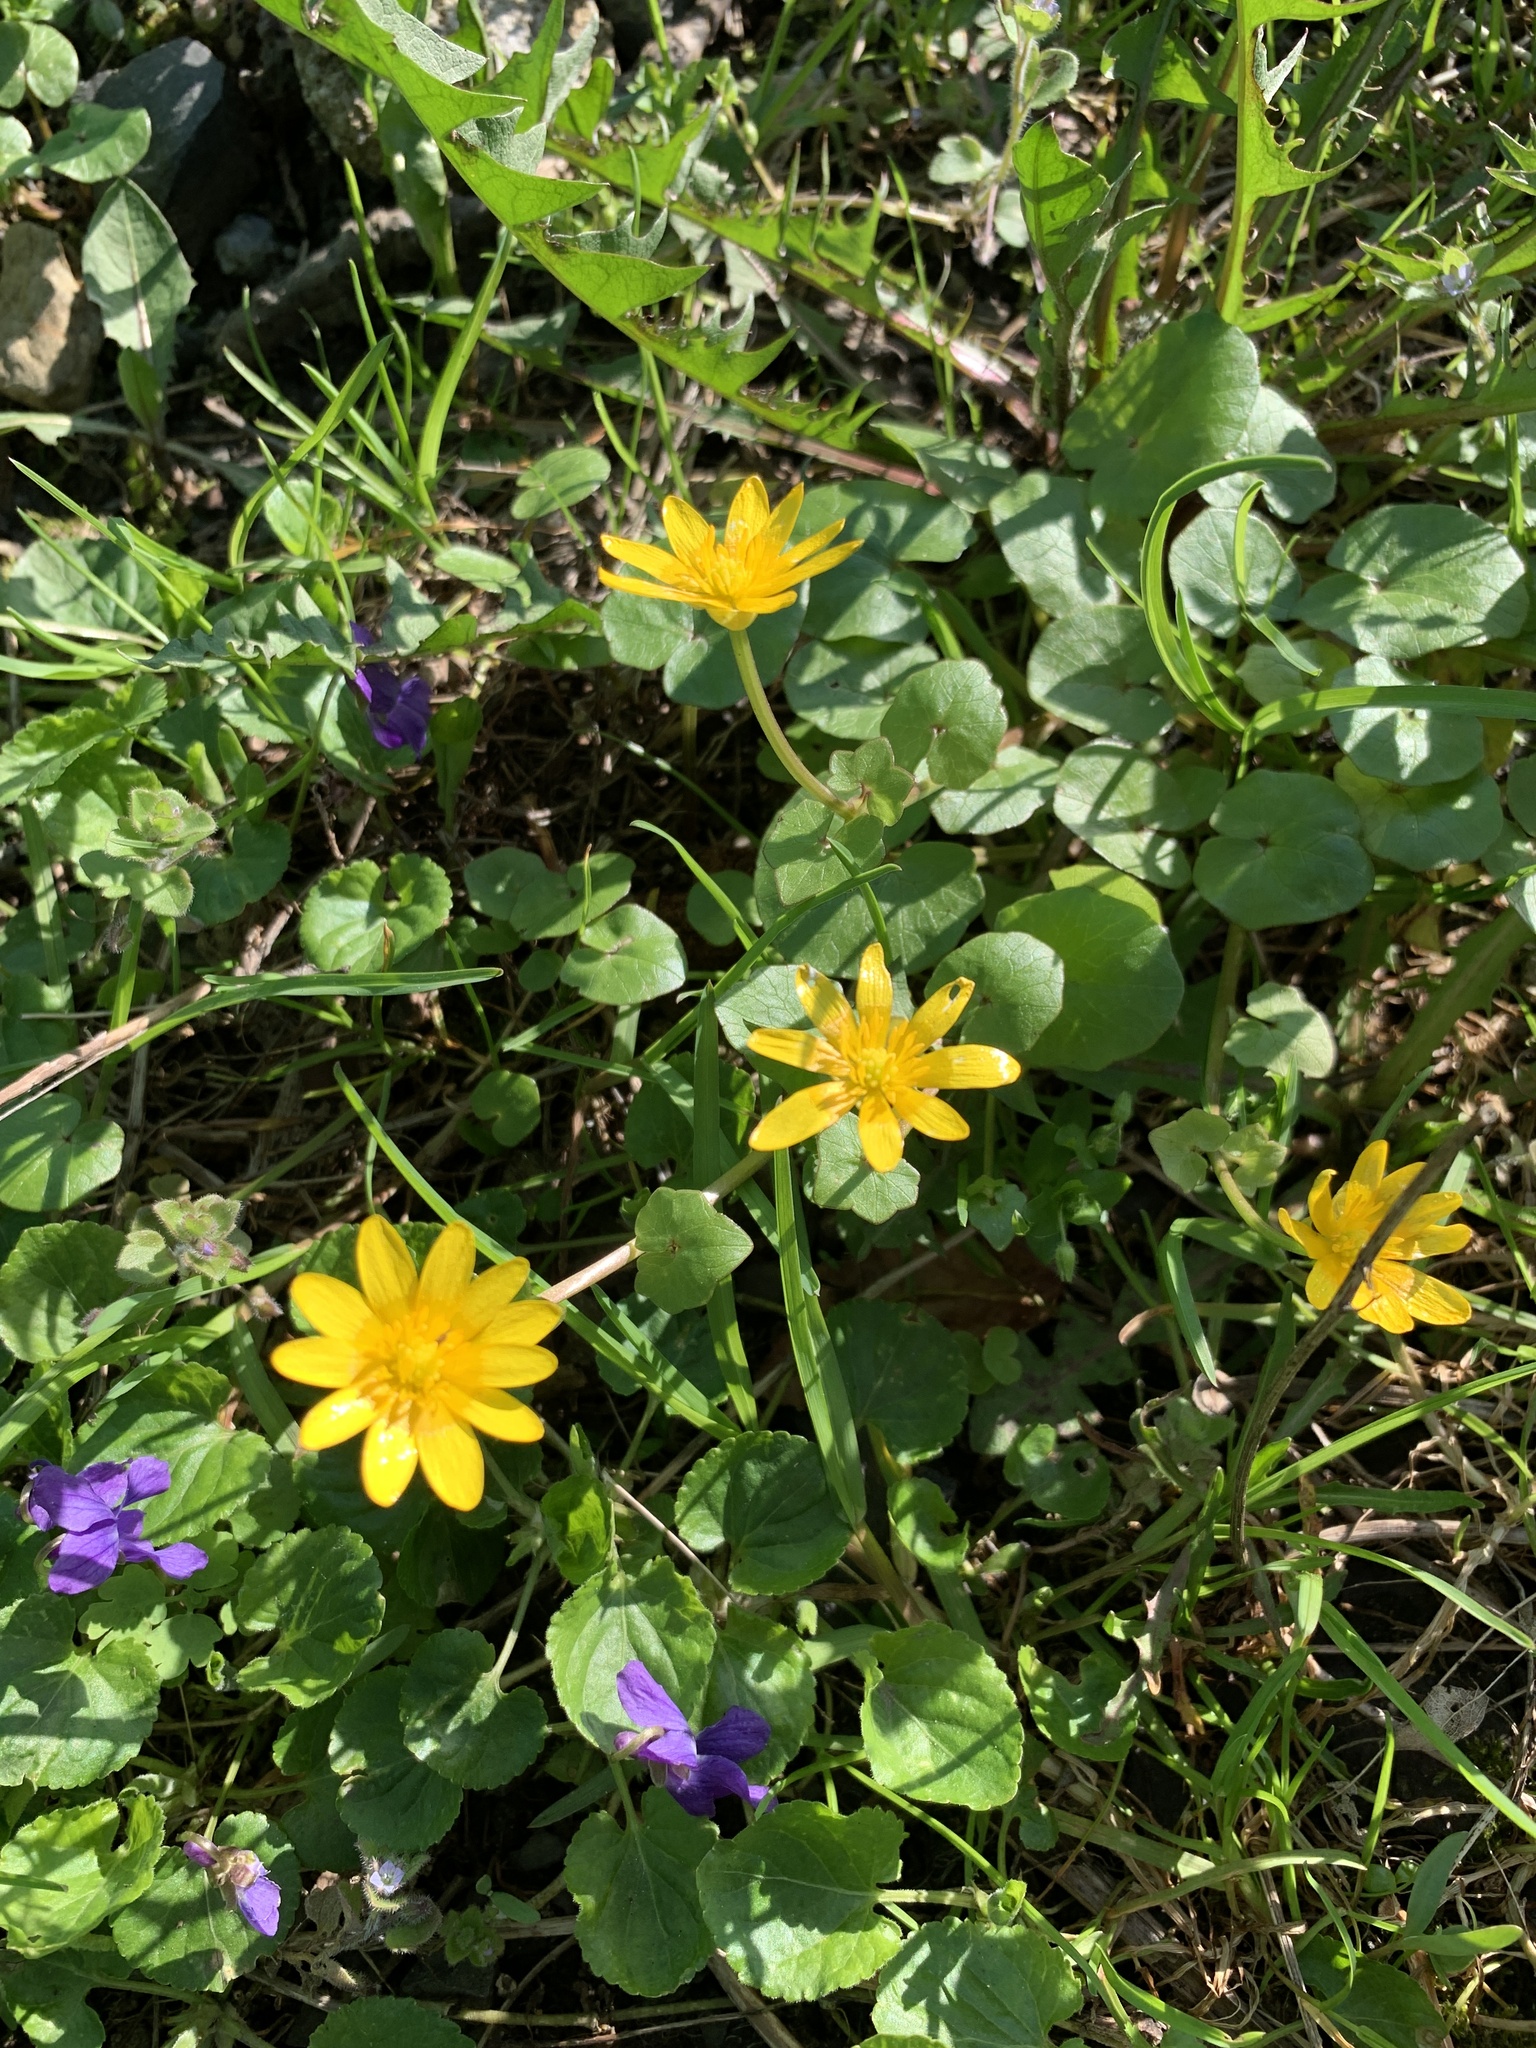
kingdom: Plantae
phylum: Tracheophyta
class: Magnoliopsida
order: Ranunculales
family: Ranunculaceae
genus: Ficaria
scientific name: Ficaria verna
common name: Lesser celandine
